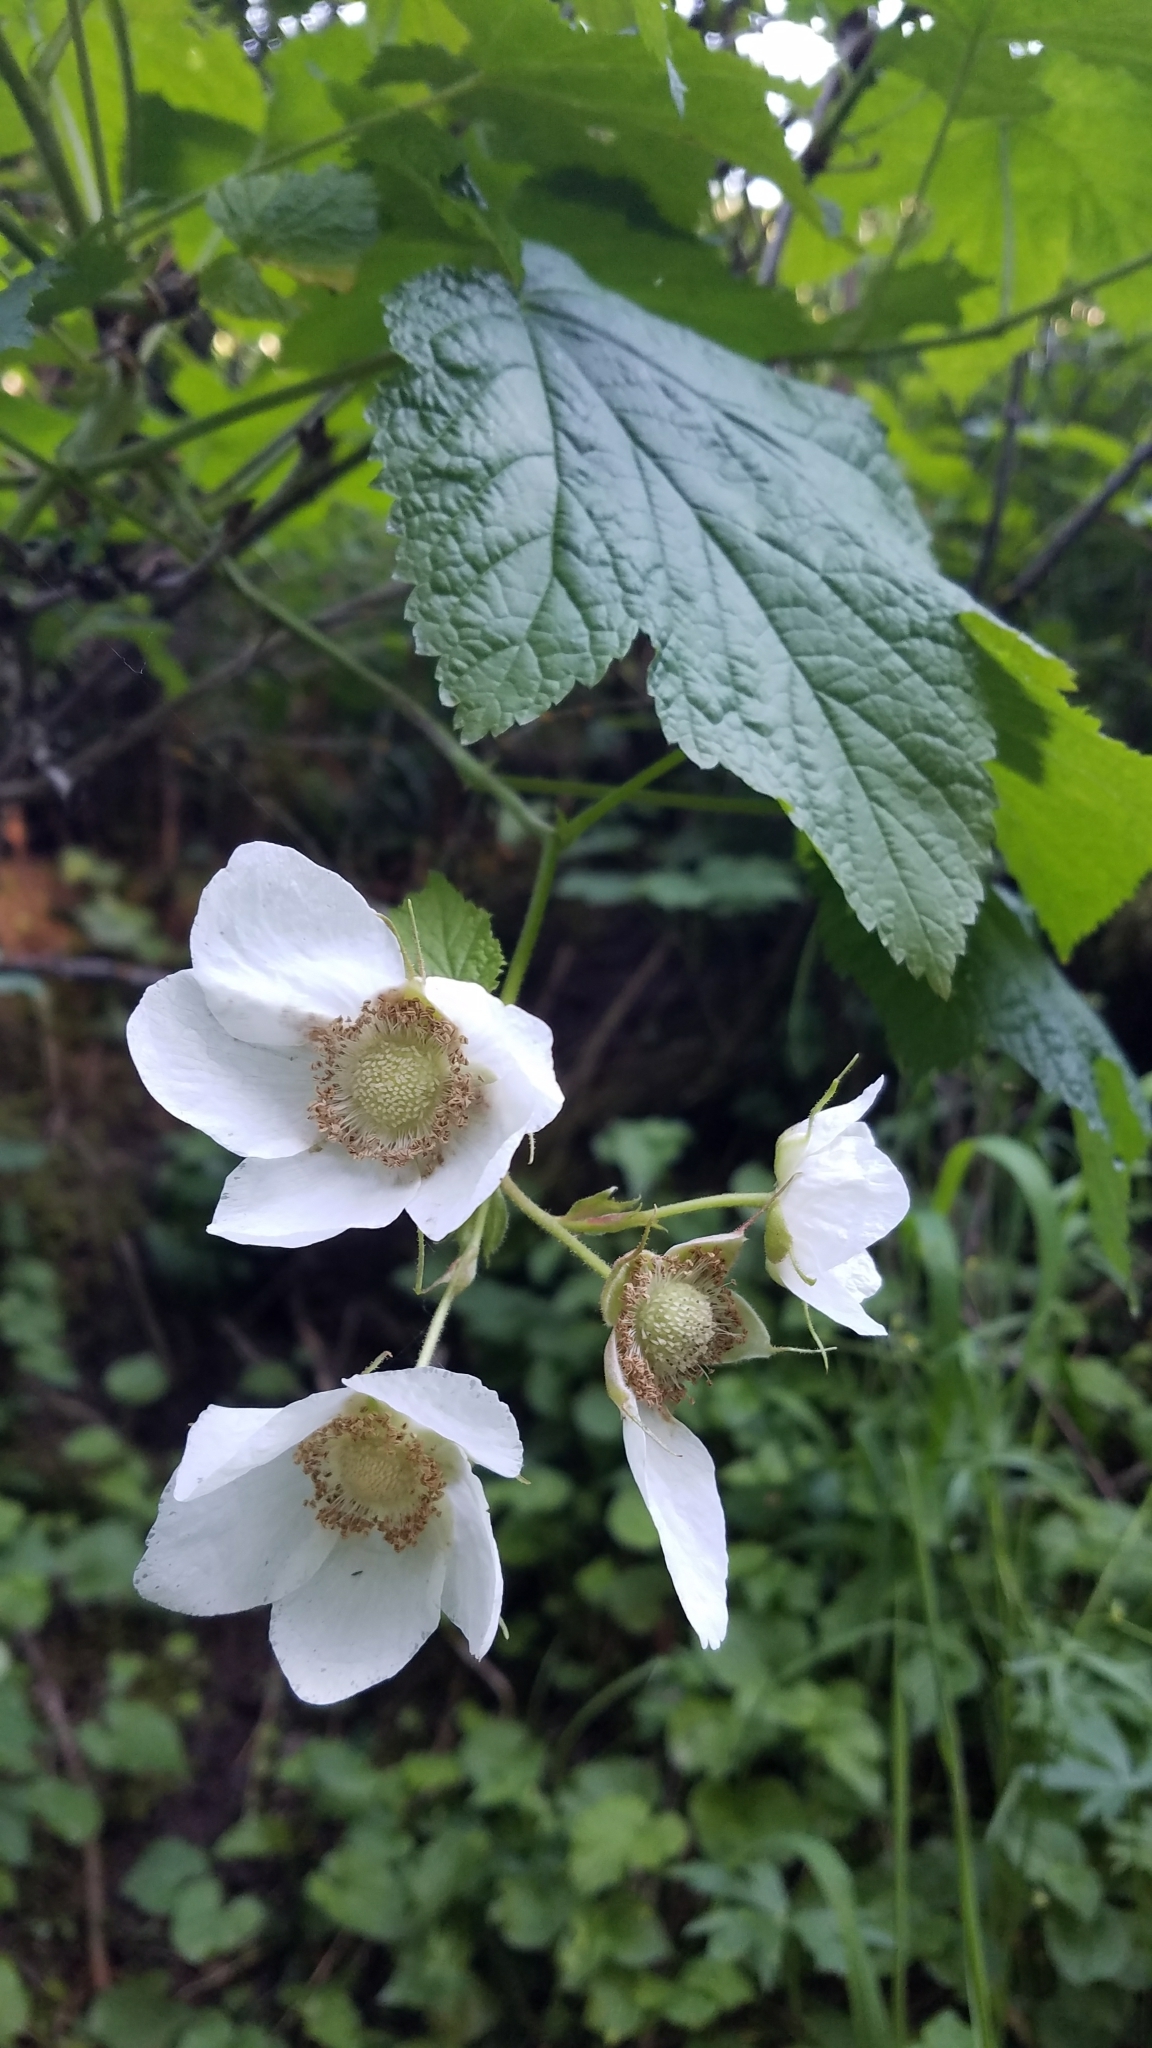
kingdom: Plantae
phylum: Tracheophyta
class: Magnoliopsida
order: Rosales
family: Rosaceae
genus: Rubus
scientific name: Rubus parviflorus
